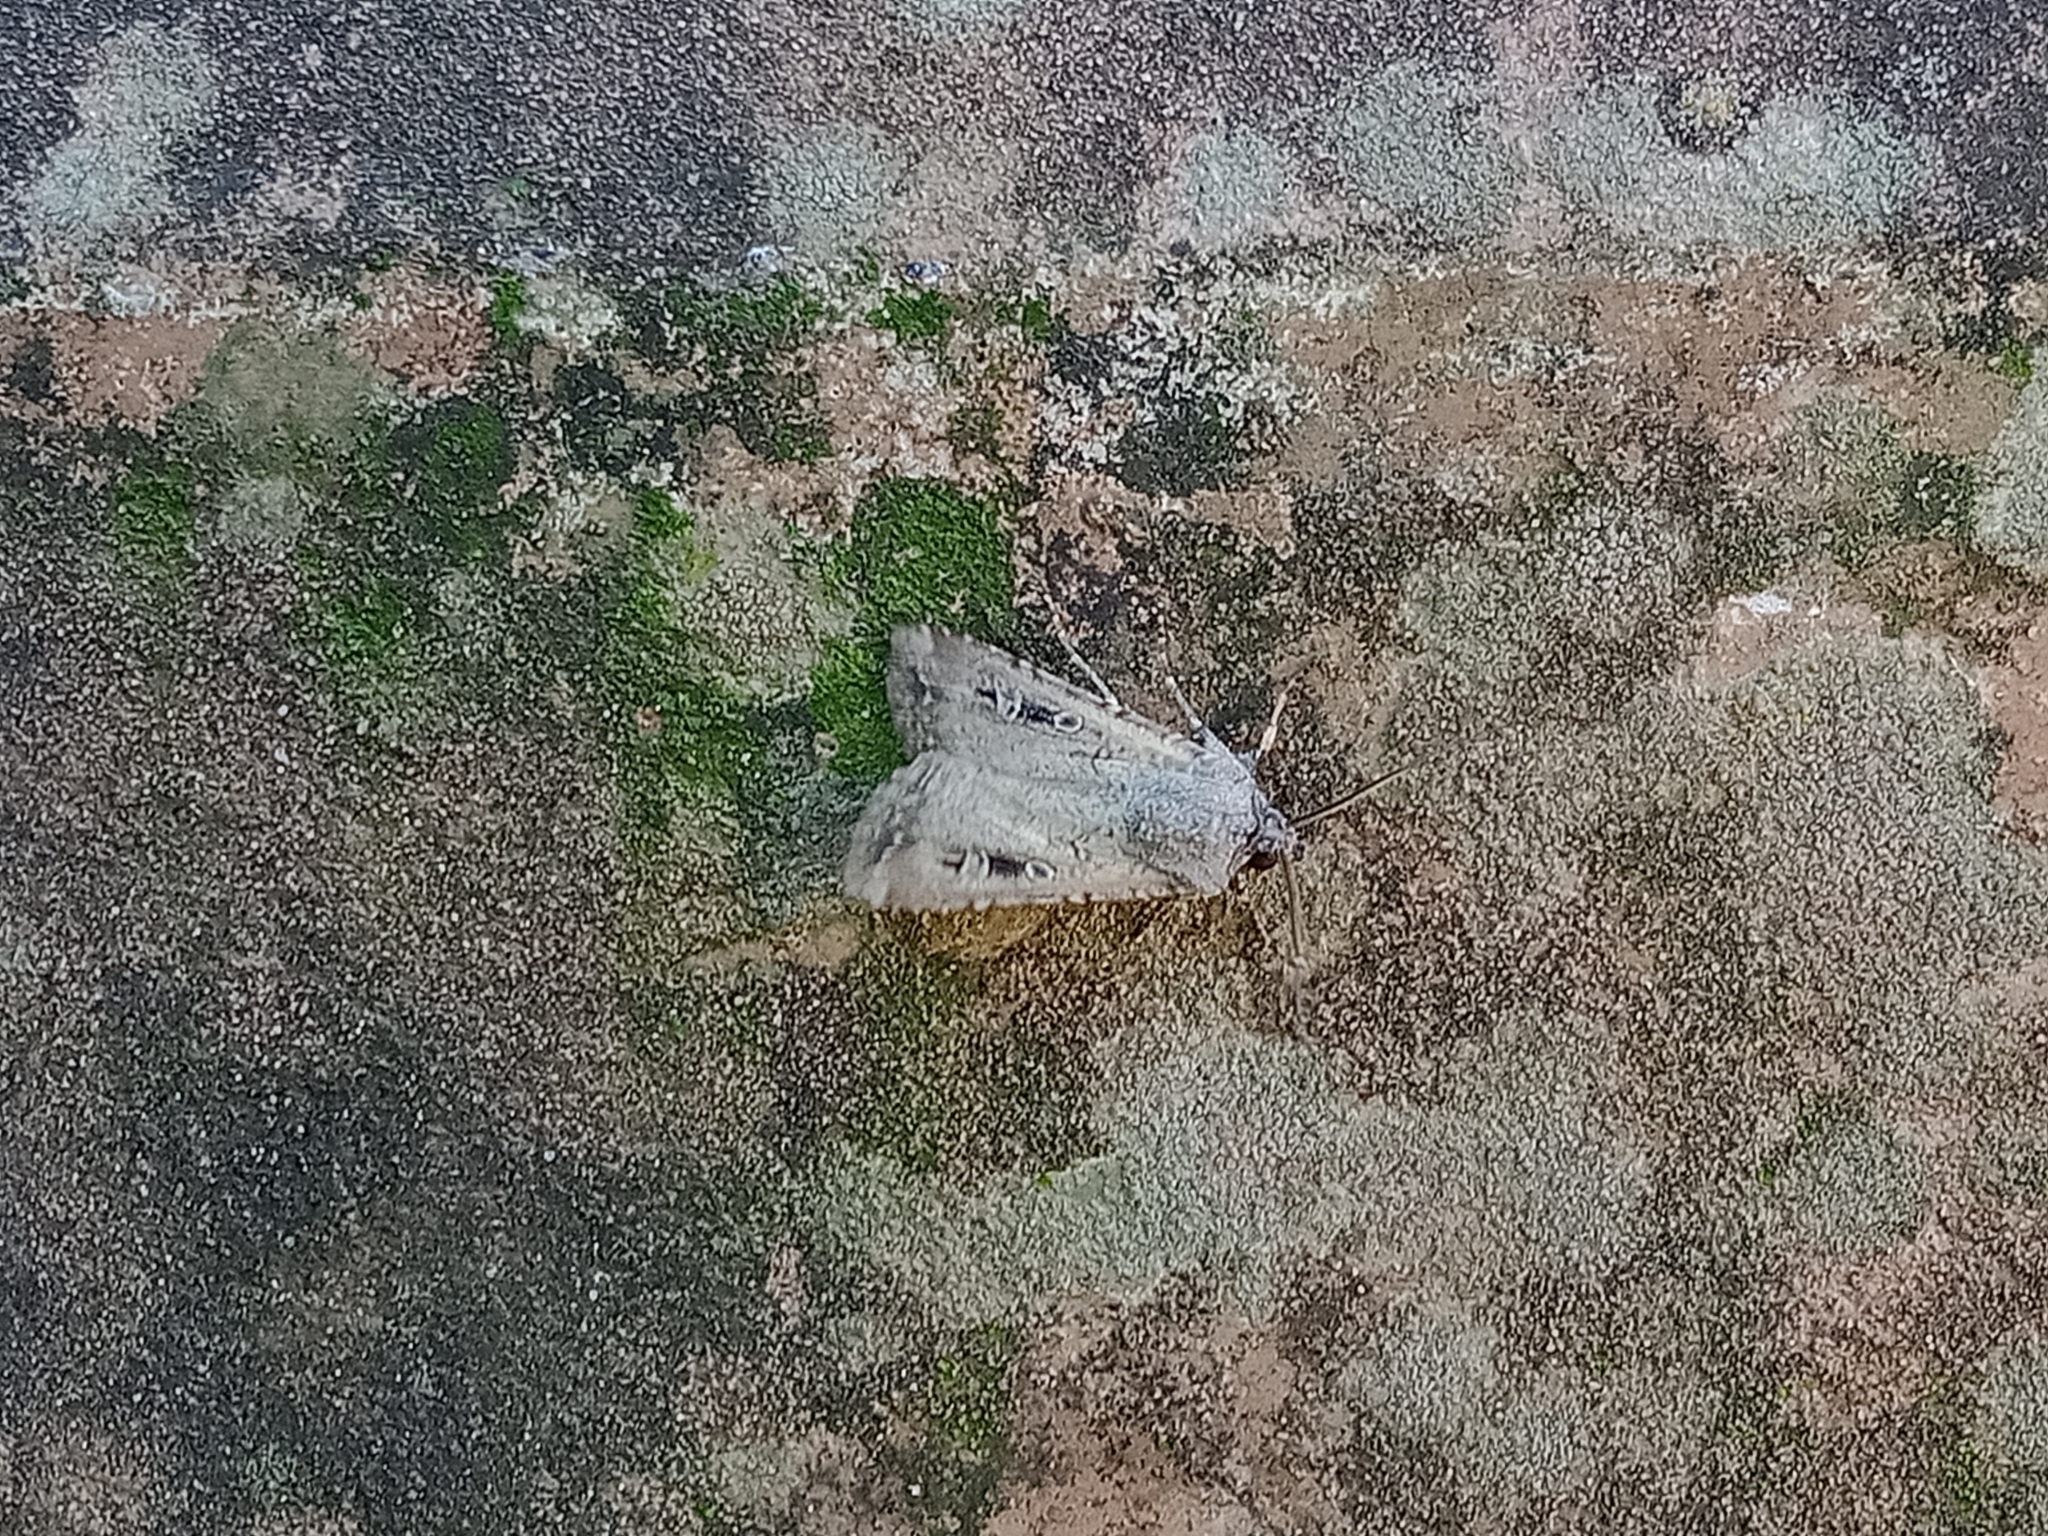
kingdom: Animalia
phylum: Arthropoda
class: Insecta
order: Lepidoptera
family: Noctuidae
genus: Agrotis
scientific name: Agrotis infusa
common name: Bogong moth
